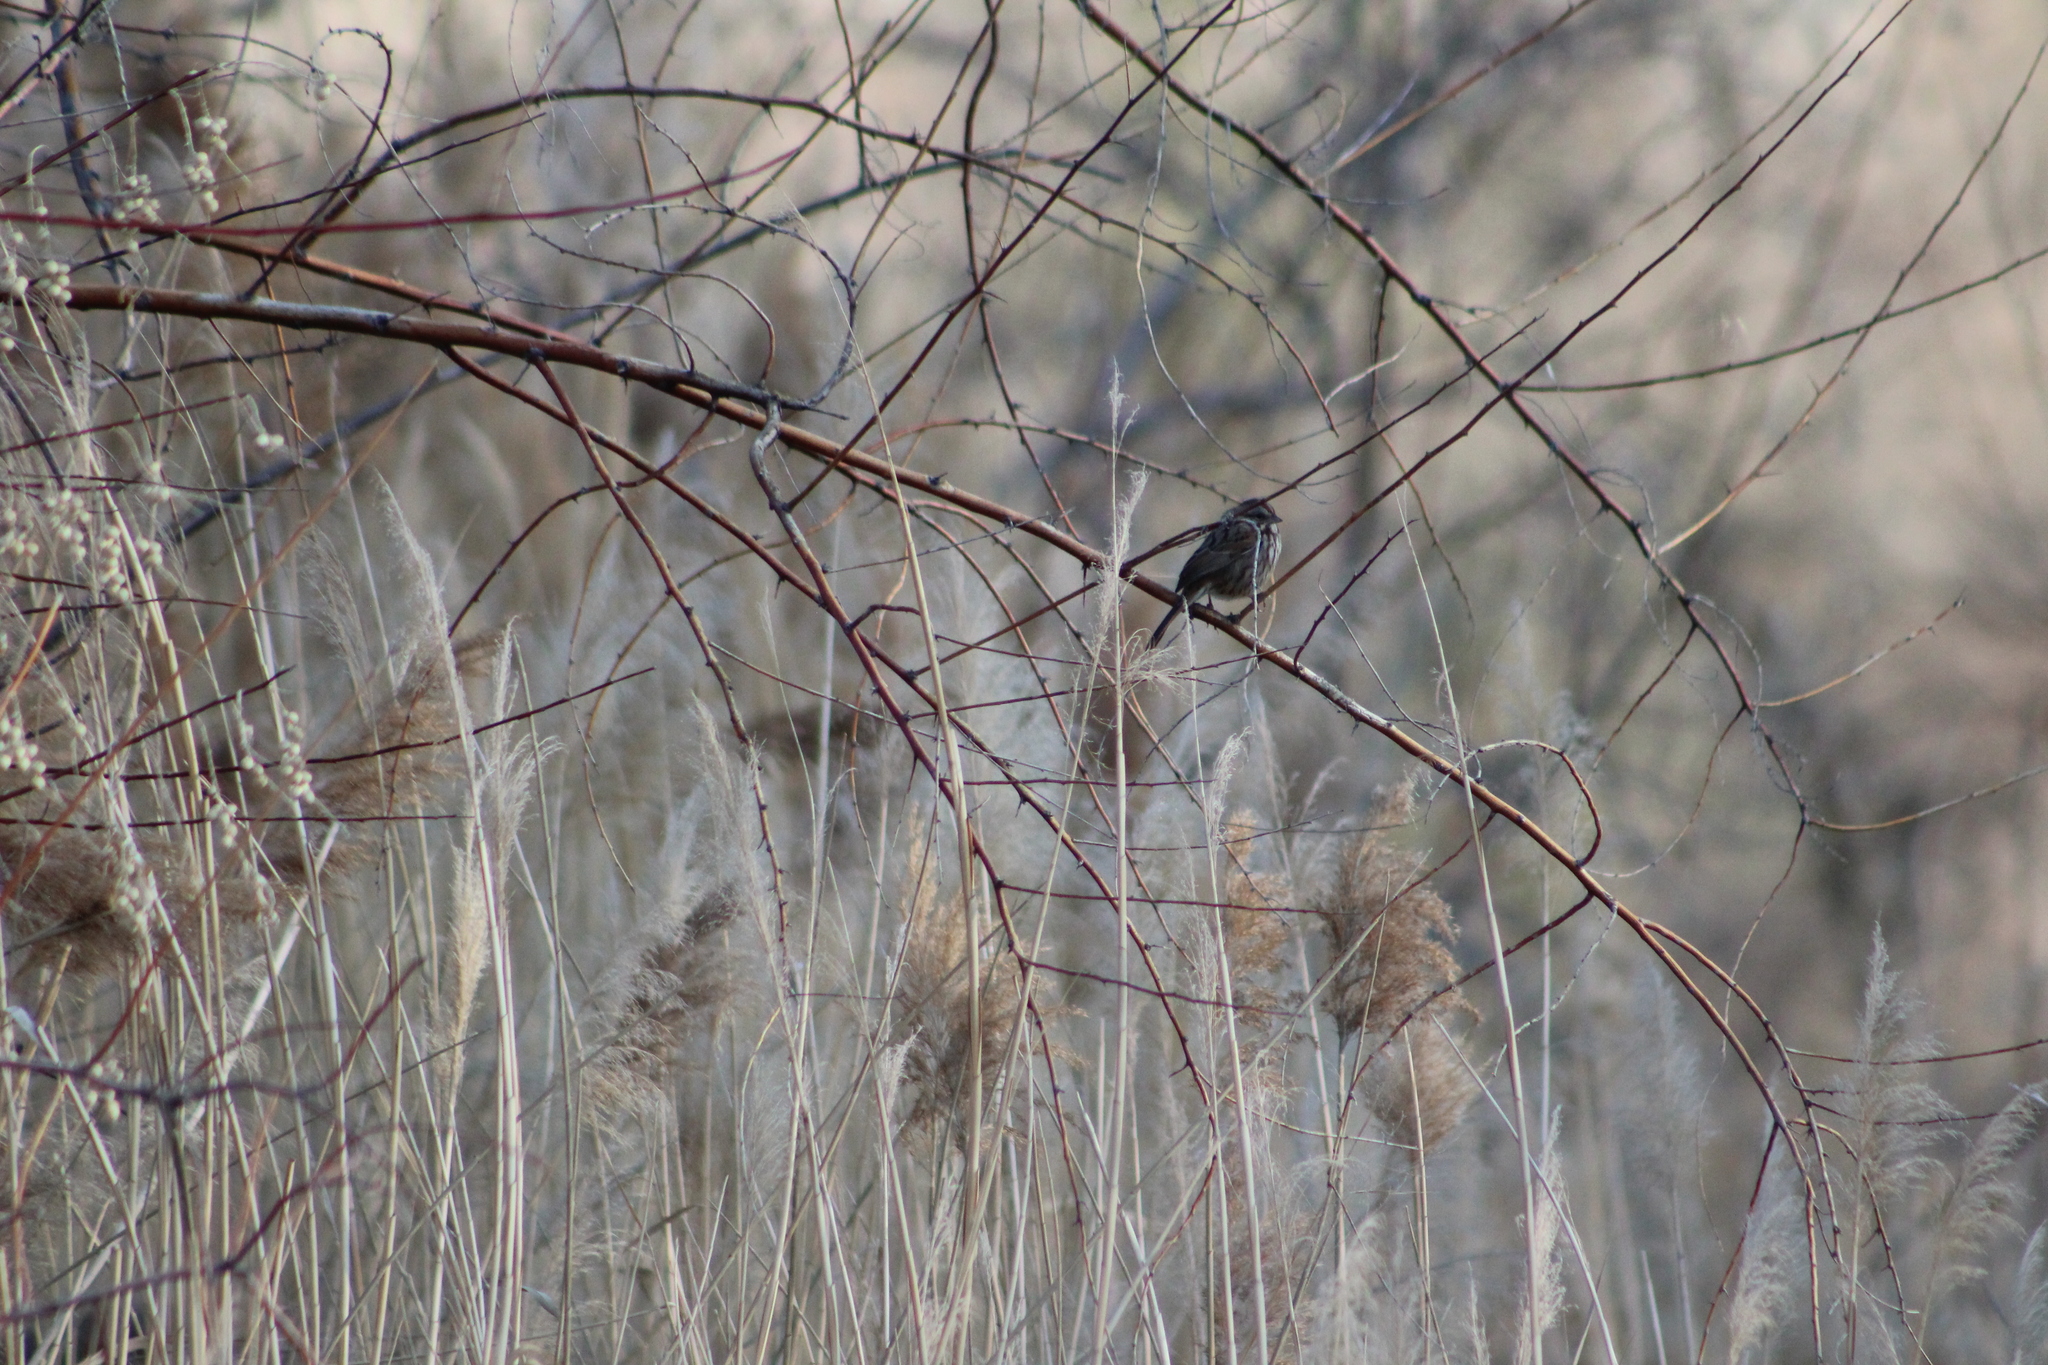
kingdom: Animalia
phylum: Chordata
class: Aves
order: Passeriformes
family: Passerellidae
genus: Melospiza
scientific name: Melospiza melodia
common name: Song sparrow
